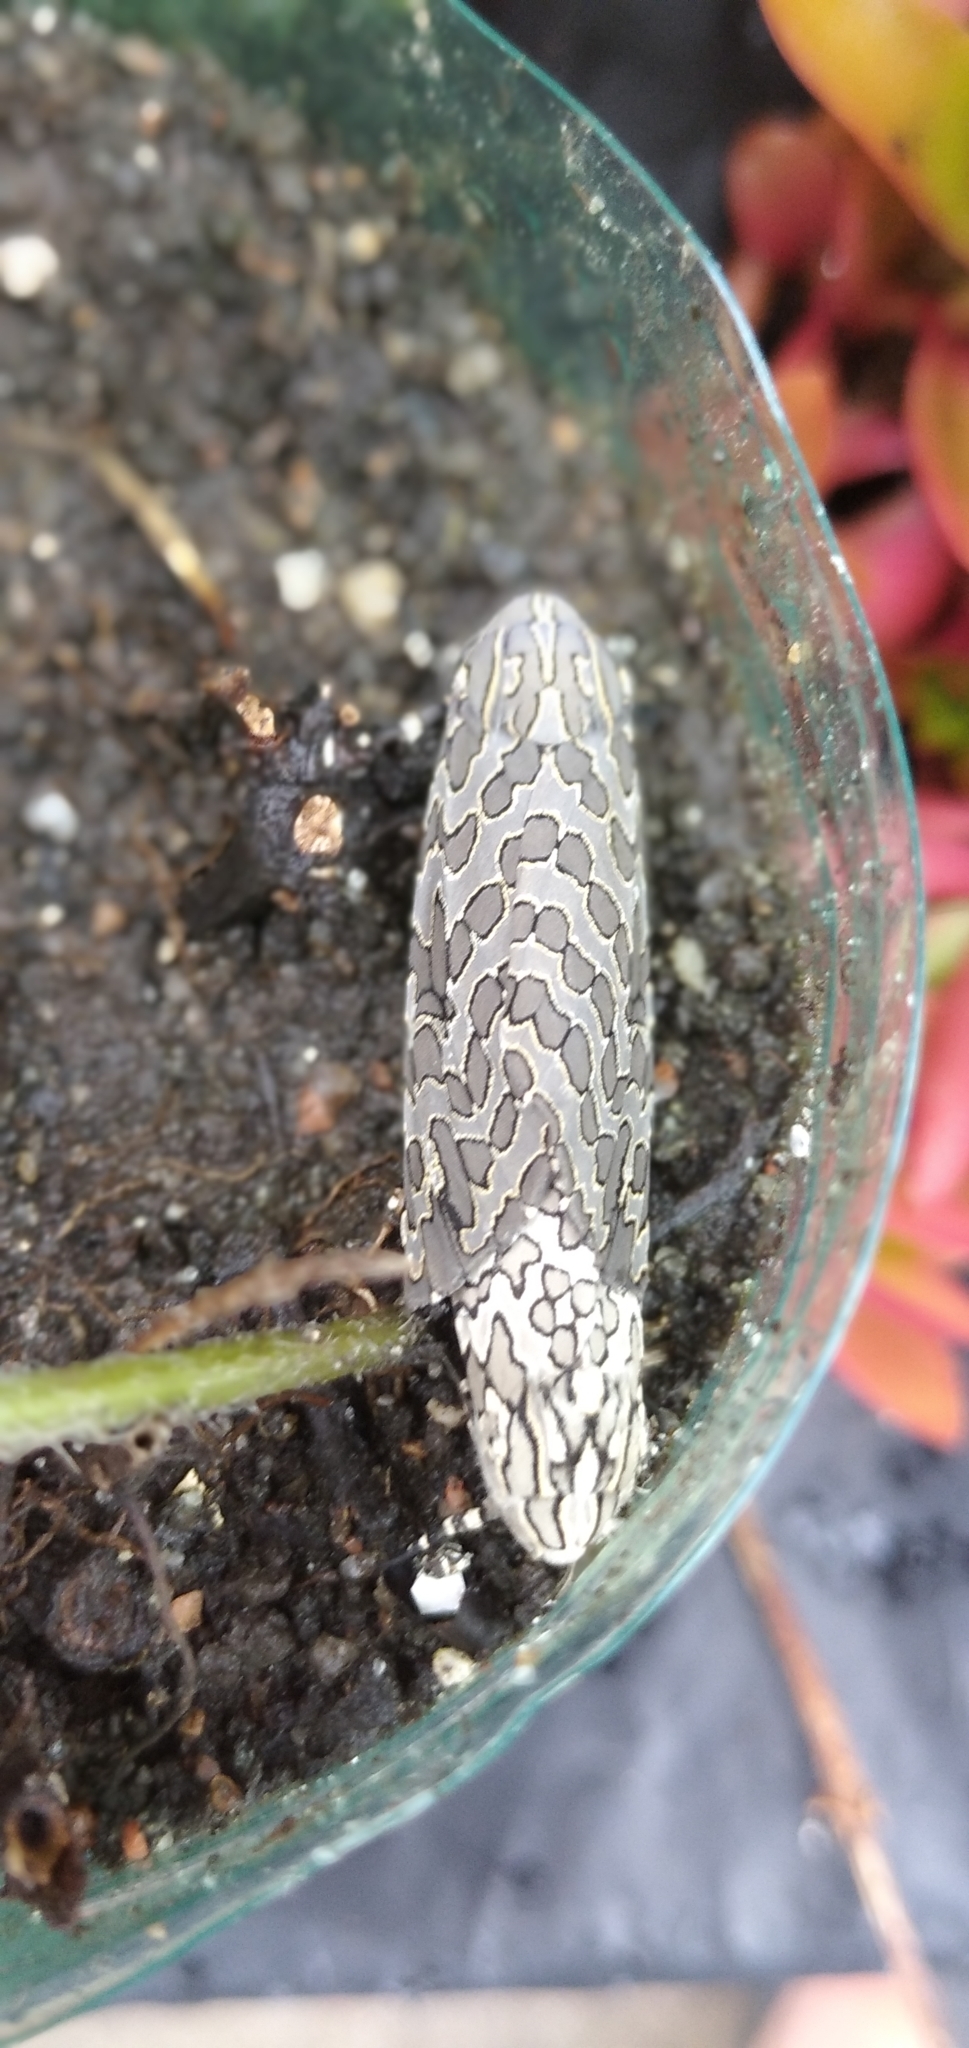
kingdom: Animalia
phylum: Arthropoda
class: Insecta
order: Lepidoptera
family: Erebidae
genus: Hypercompe
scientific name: Hypercompe indecisa
